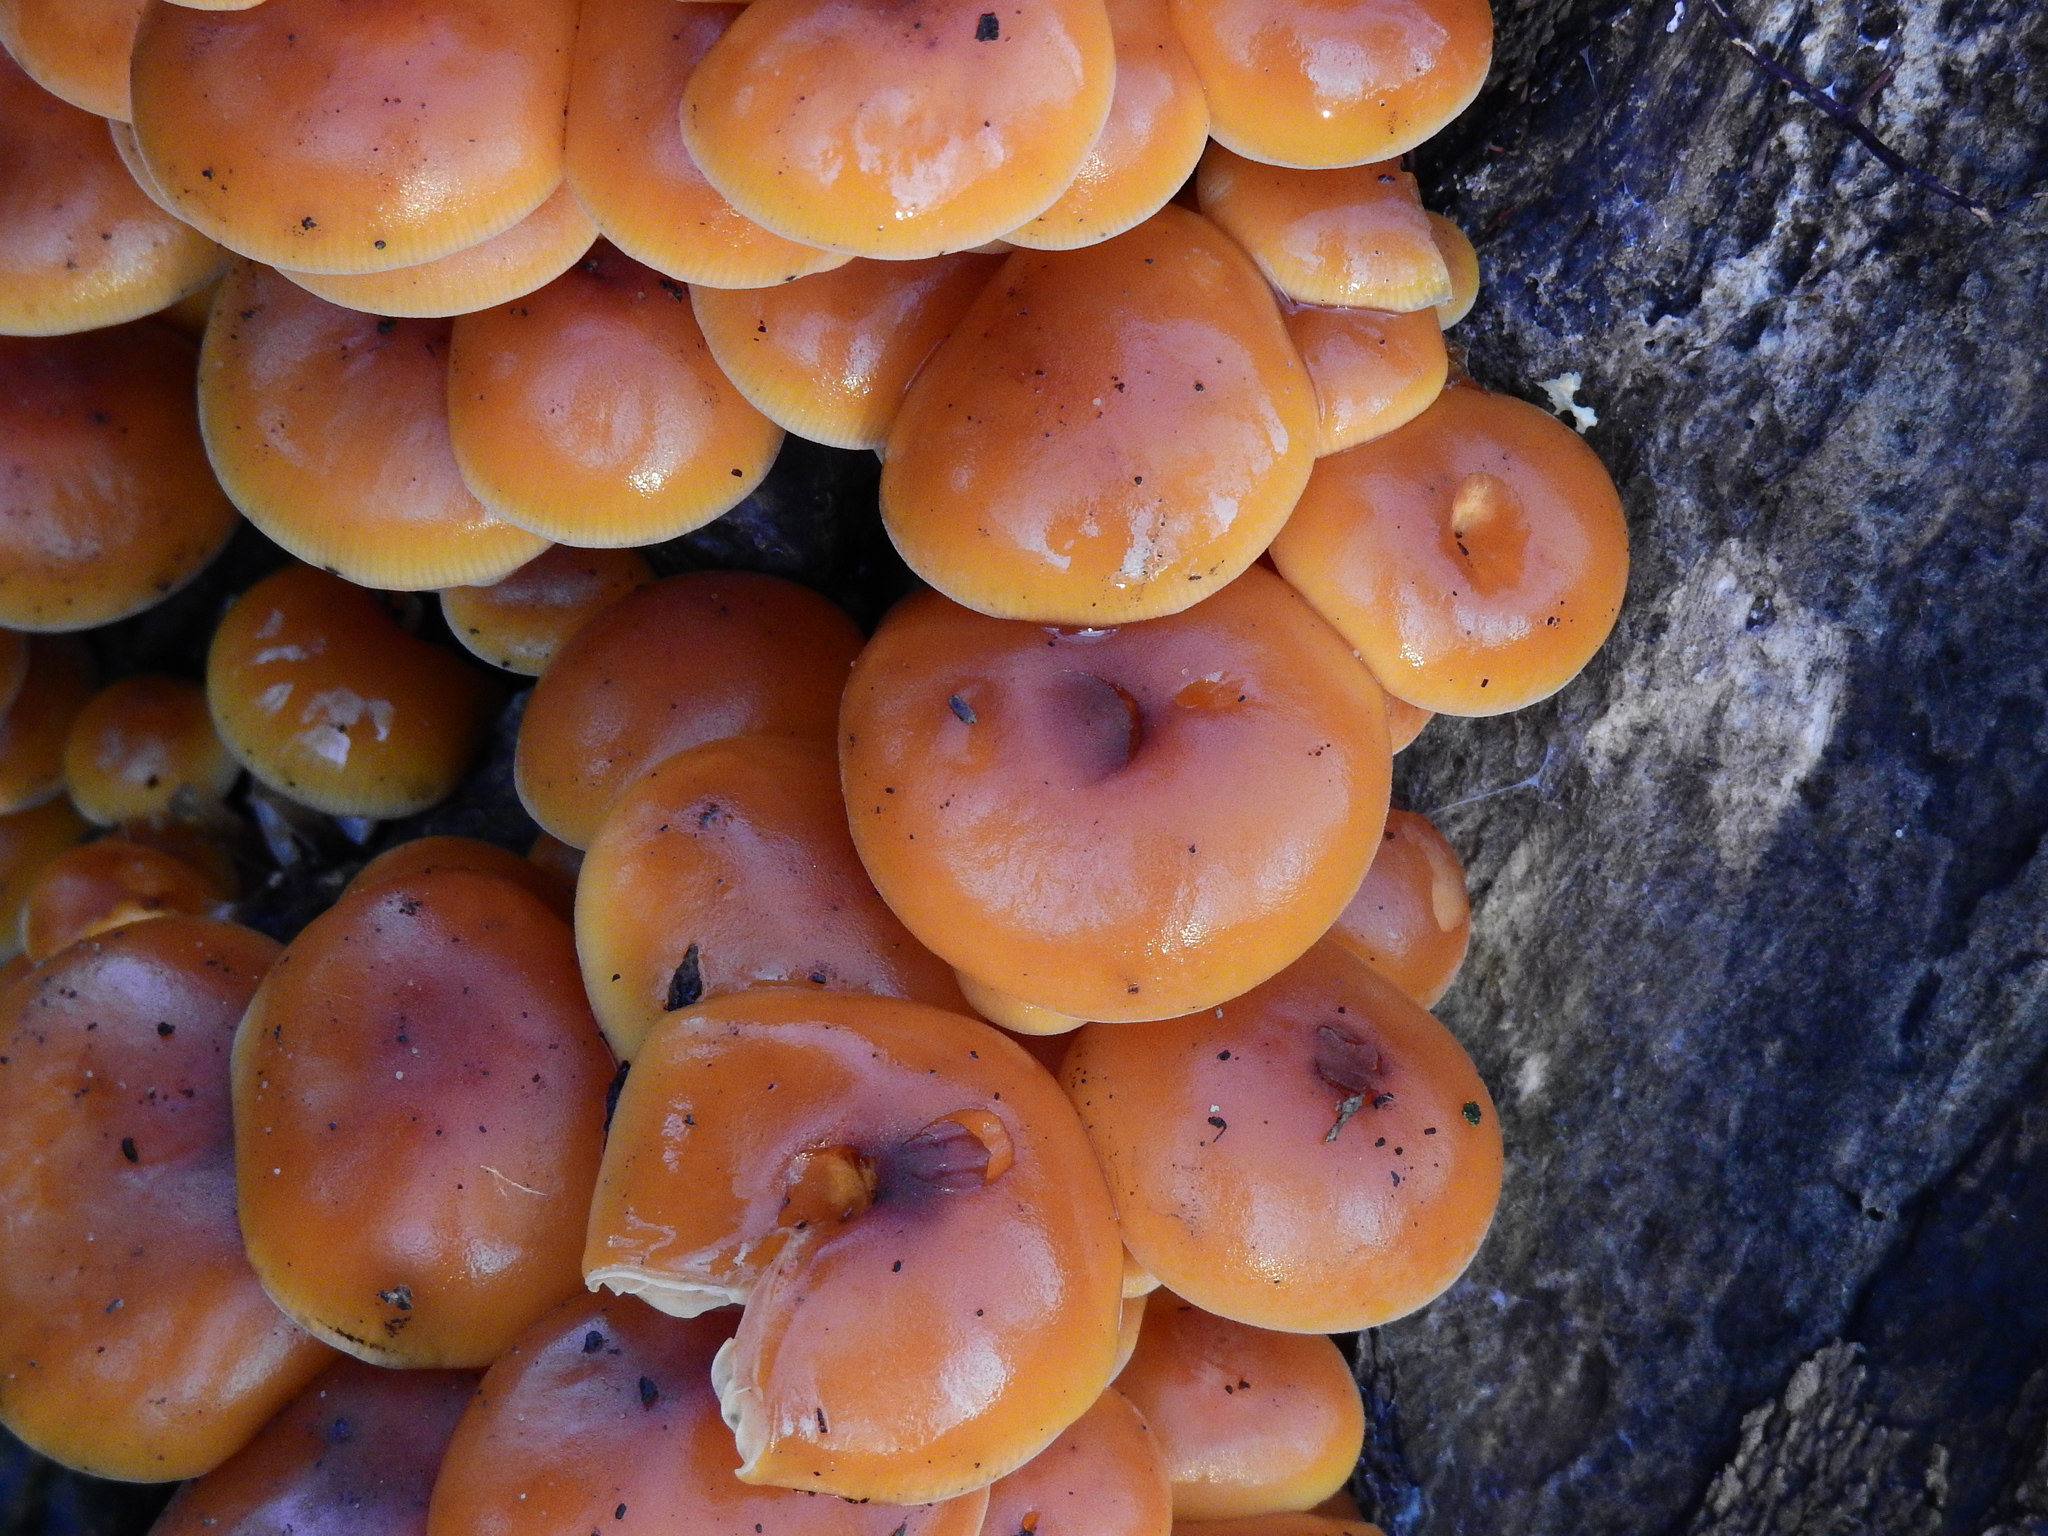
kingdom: Fungi
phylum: Basidiomycota
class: Agaricomycetes
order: Agaricales
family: Physalacriaceae
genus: Flammulina
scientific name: Flammulina
